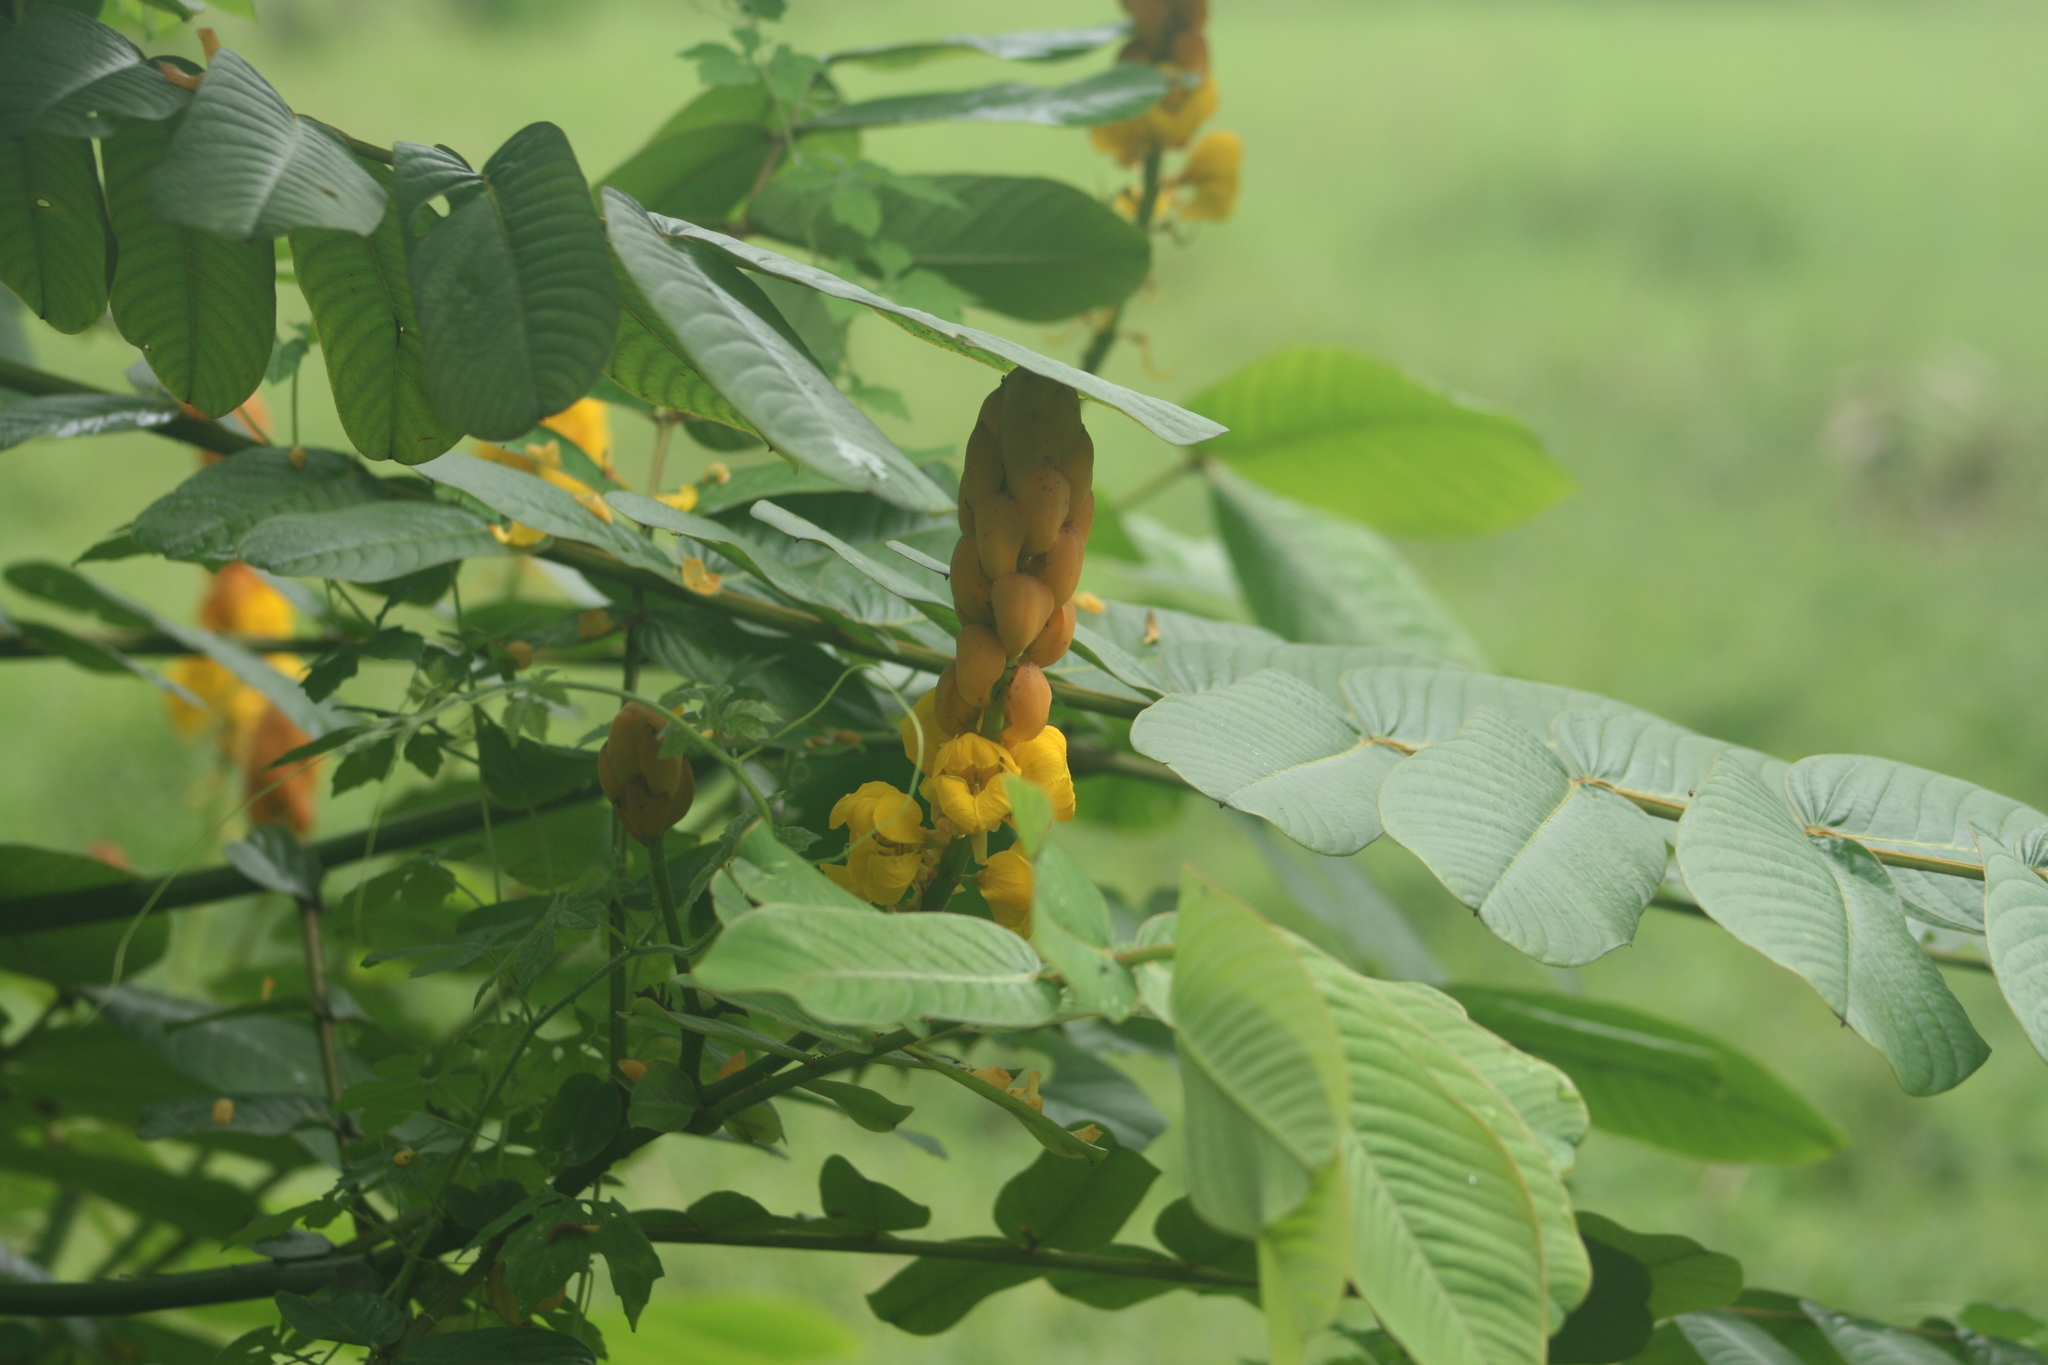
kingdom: Plantae
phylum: Tracheophyta
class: Magnoliopsida
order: Fabales
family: Fabaceae
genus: Senna
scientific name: Senna alata
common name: Emperor's candlesticks
